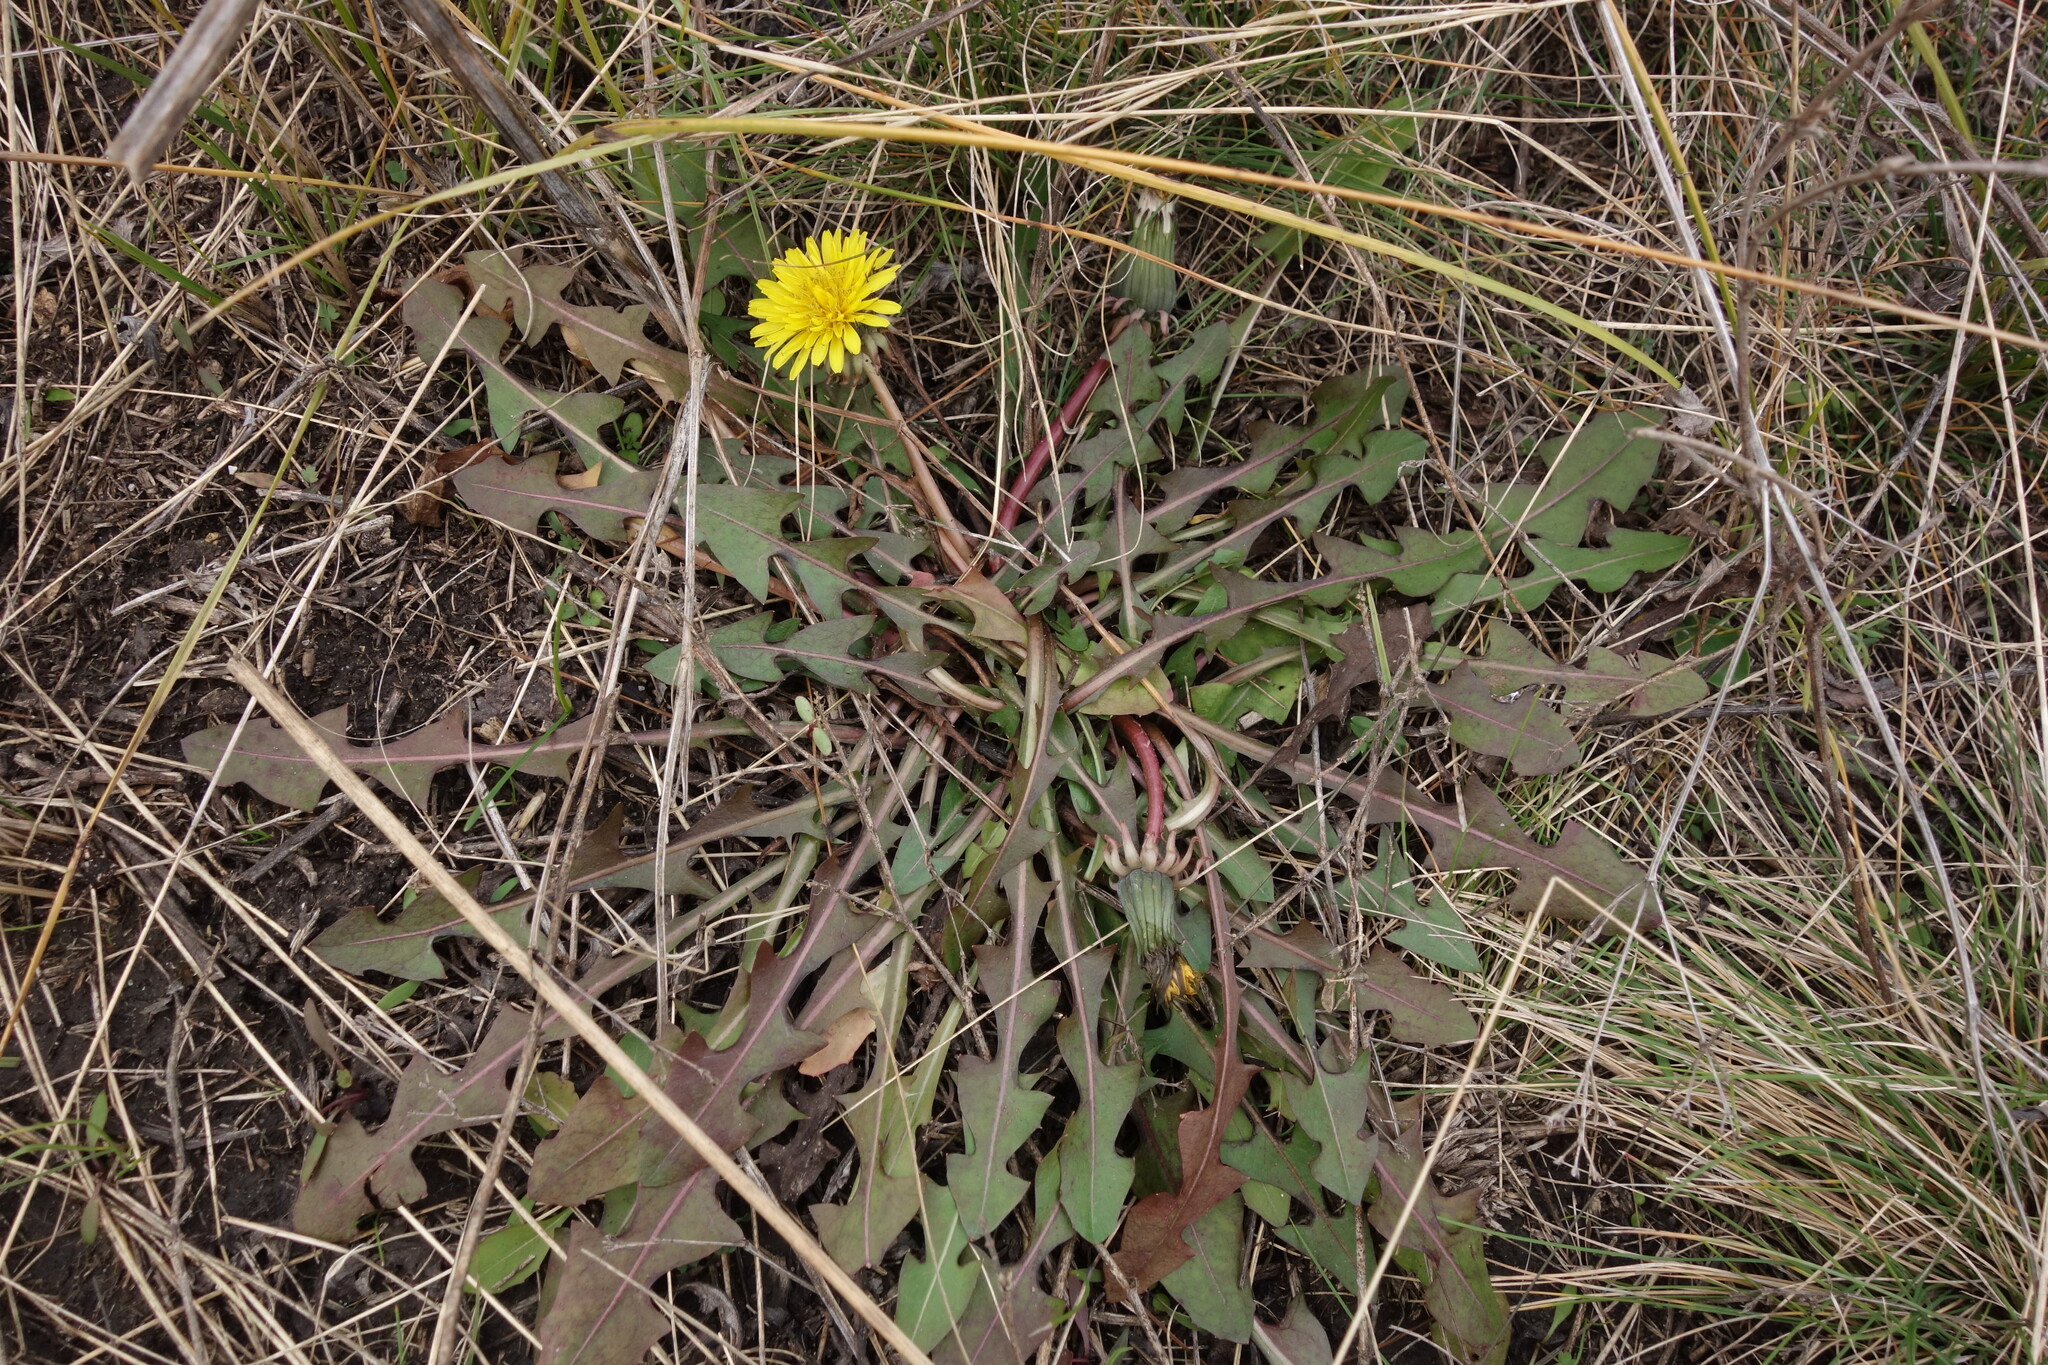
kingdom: Plantae
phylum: Tracheophyta
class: Magnoliopsida
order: Asterales
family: Asteraceae
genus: Taraxacum
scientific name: Taraxacum officinale
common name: Common dandelion
